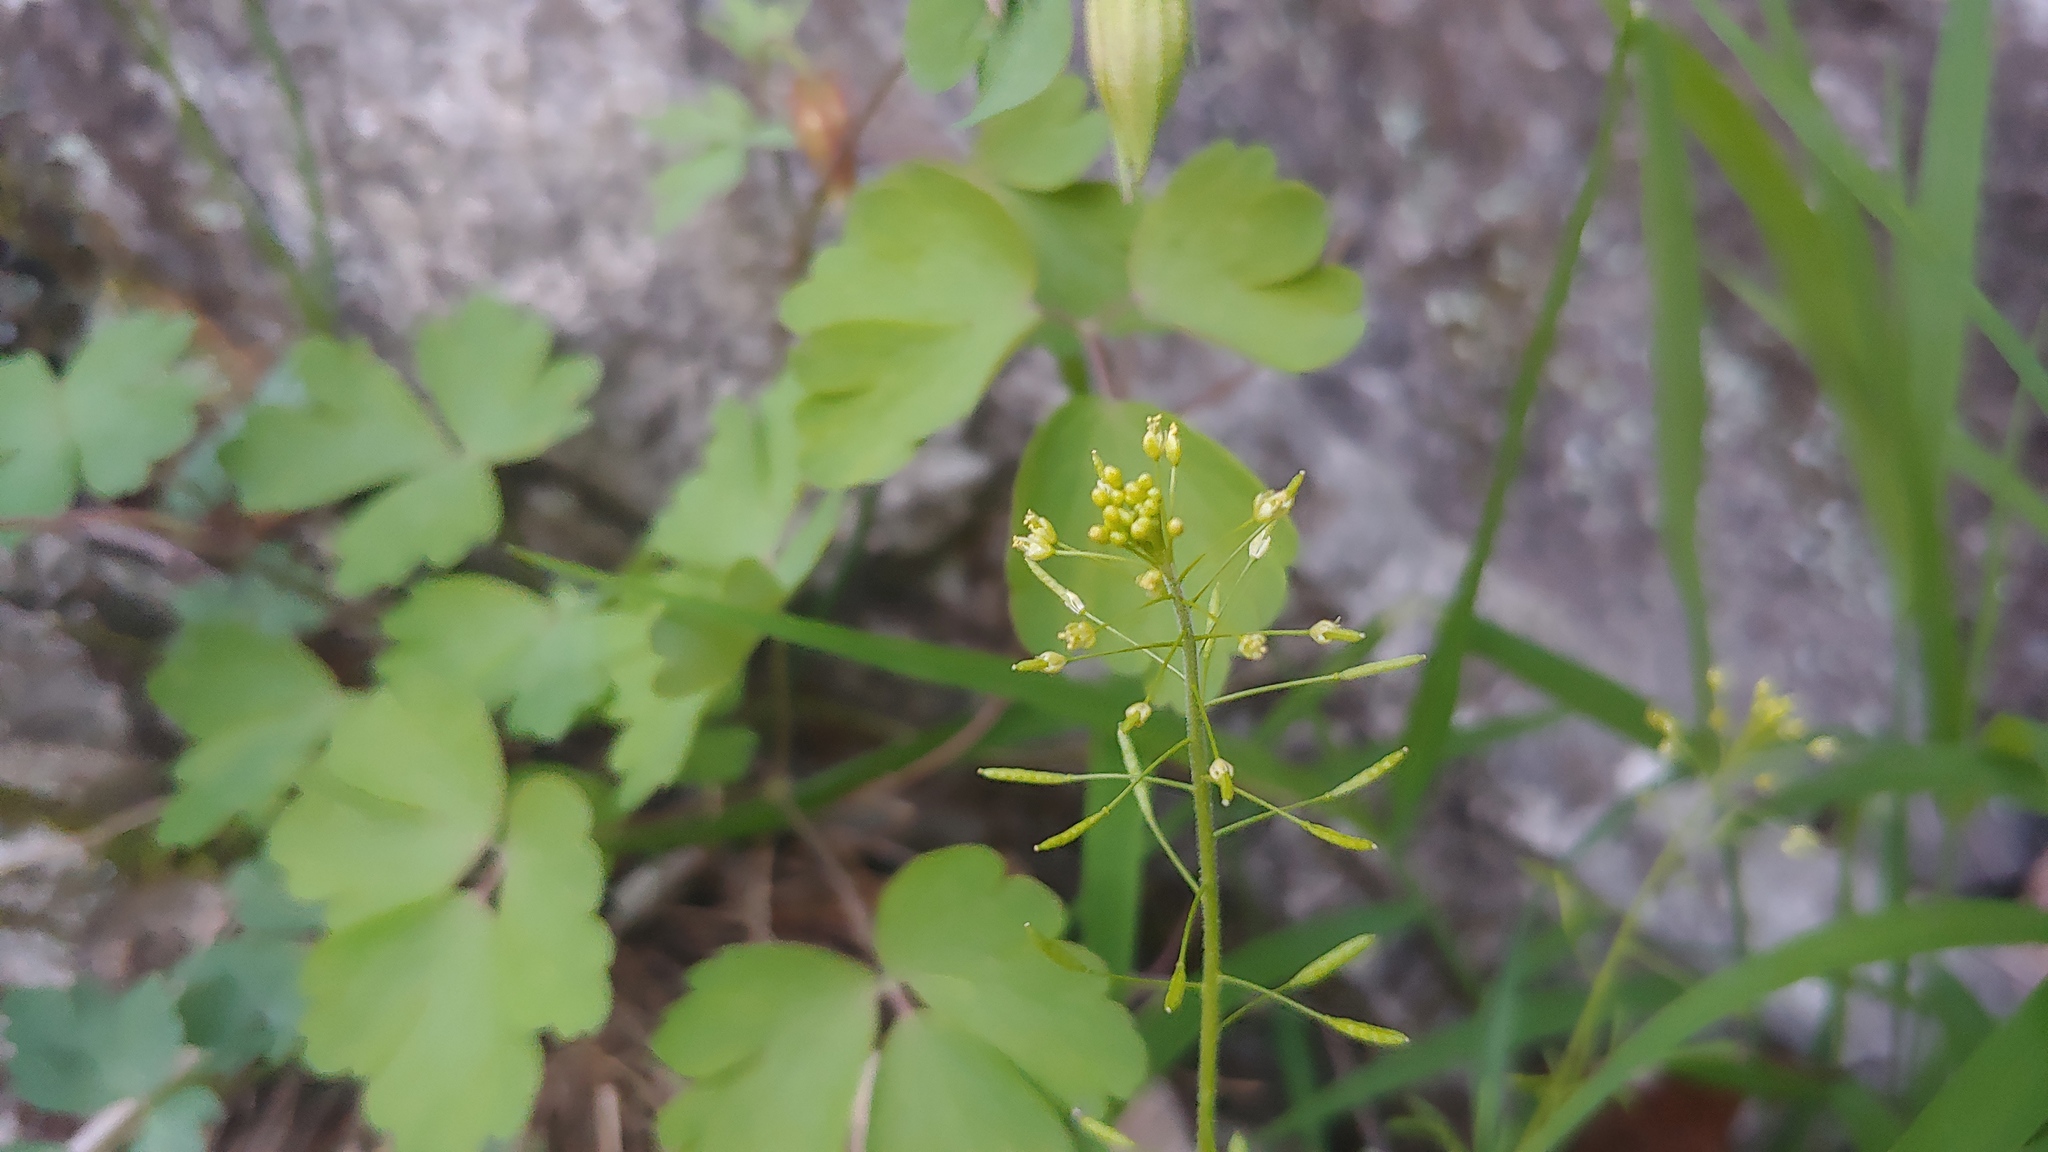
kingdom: Plantae
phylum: Tracheophyta
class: Magnoliopsida
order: Brassicales
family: Brassicaceae
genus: Descurainia
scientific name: Descurainia pinnata
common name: Western tansy mustard
